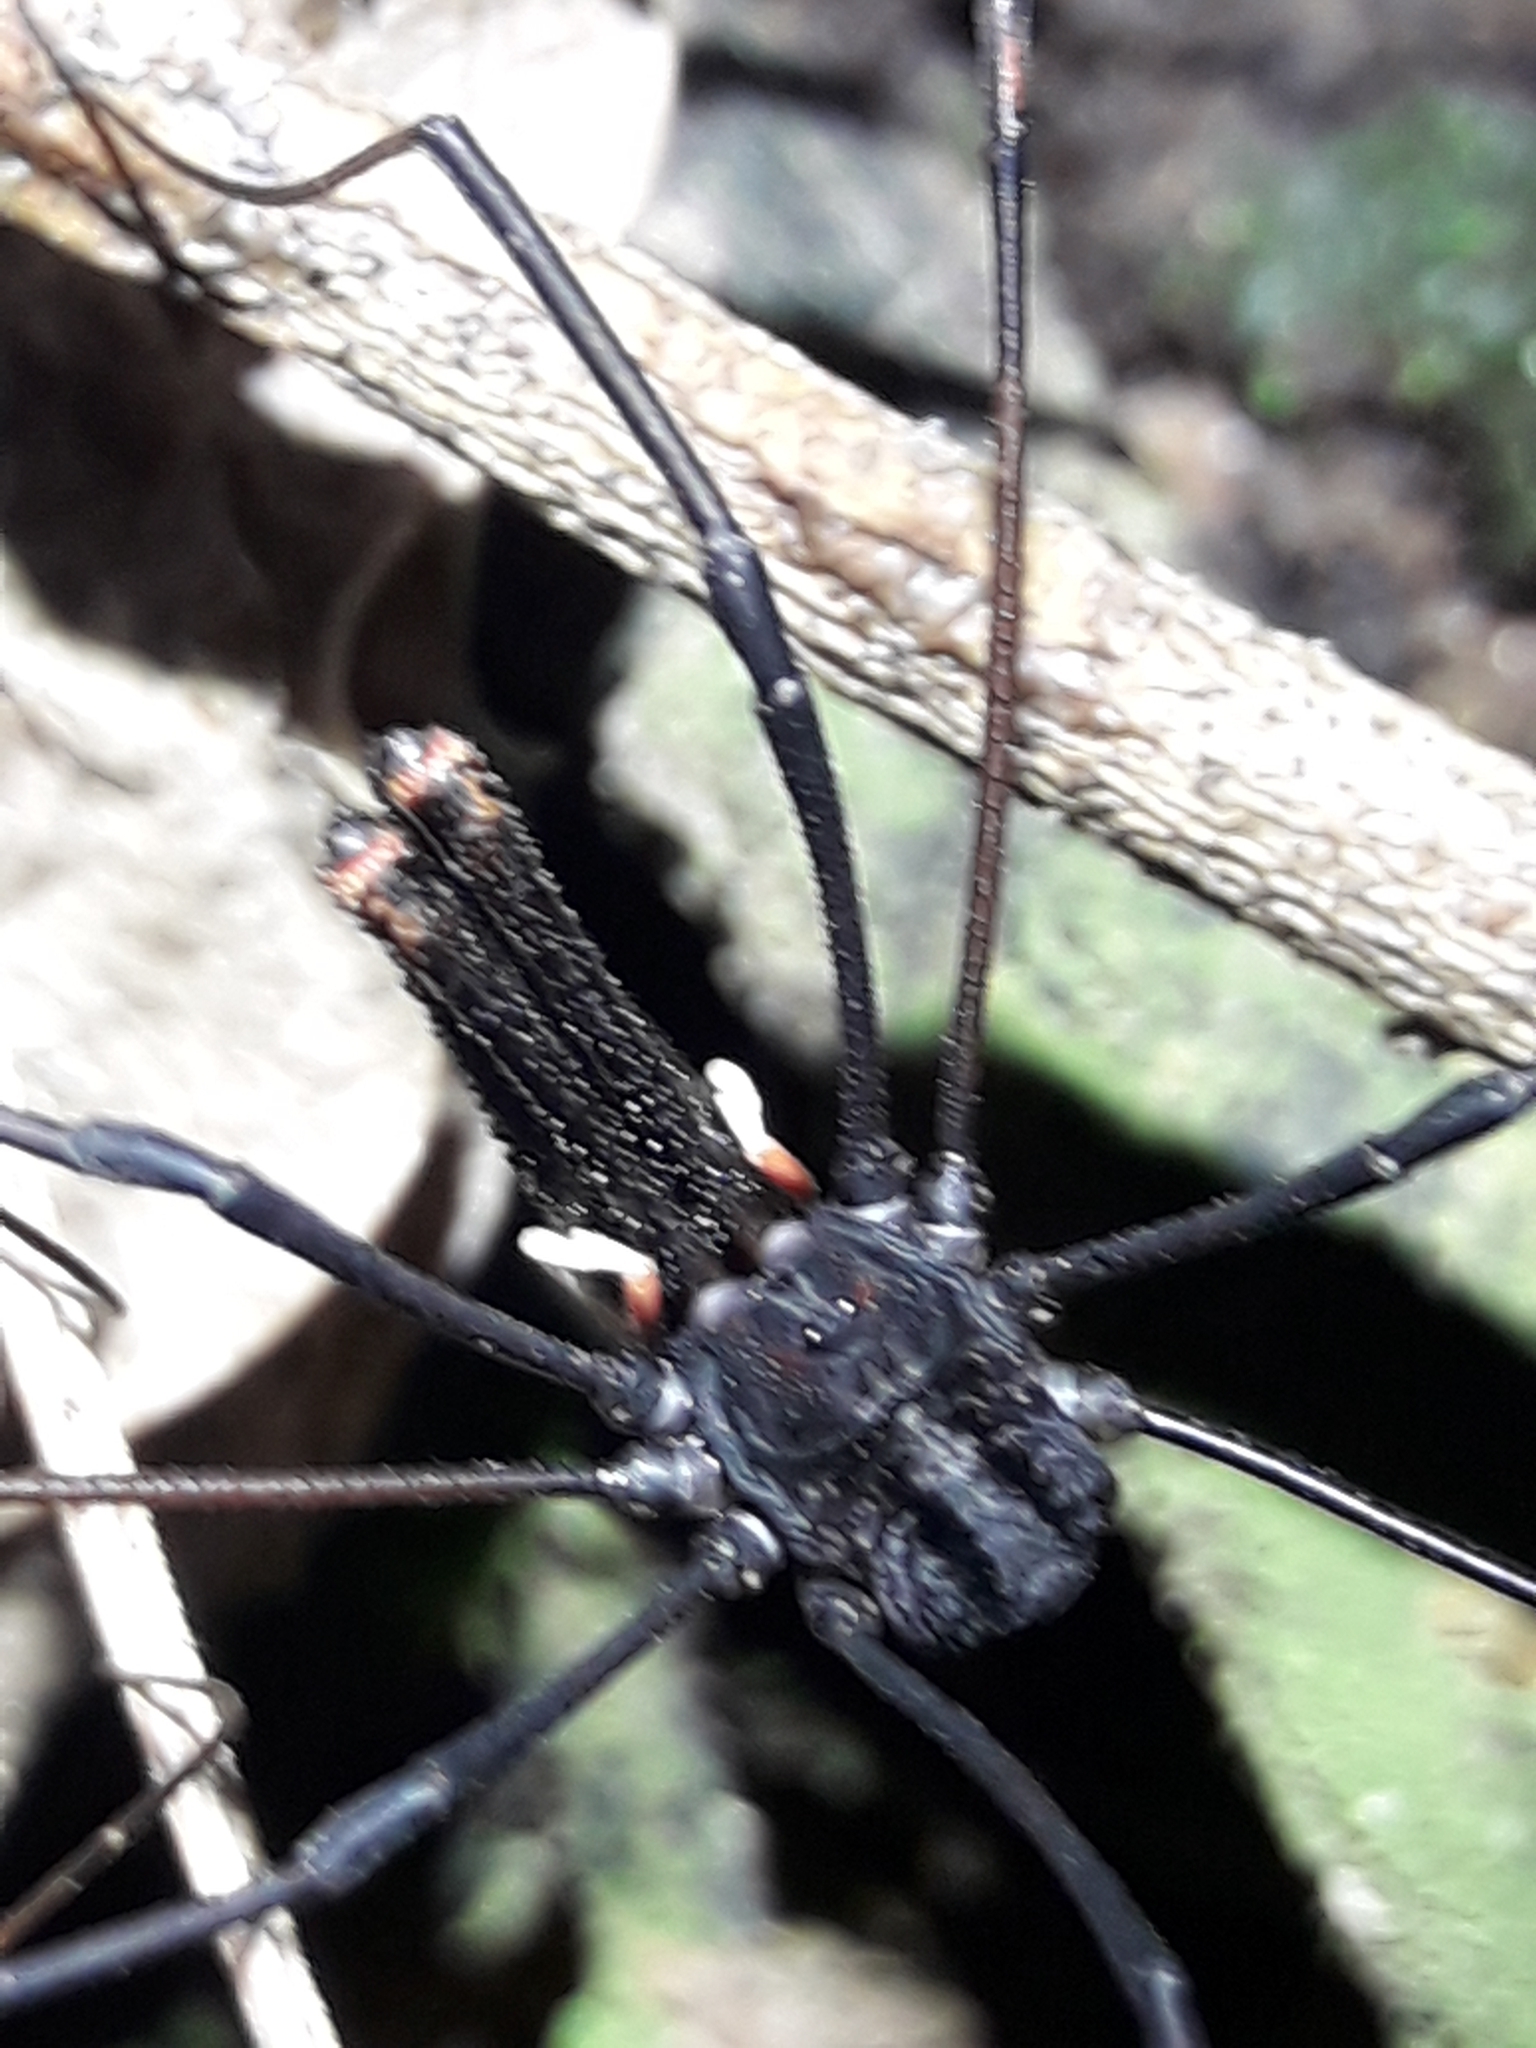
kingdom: Animalia
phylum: Arthropoda
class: Arachnida
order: Opiliones
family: Neopilionidae
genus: Forsteropsalis
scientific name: Forsteropsalis inconstans
